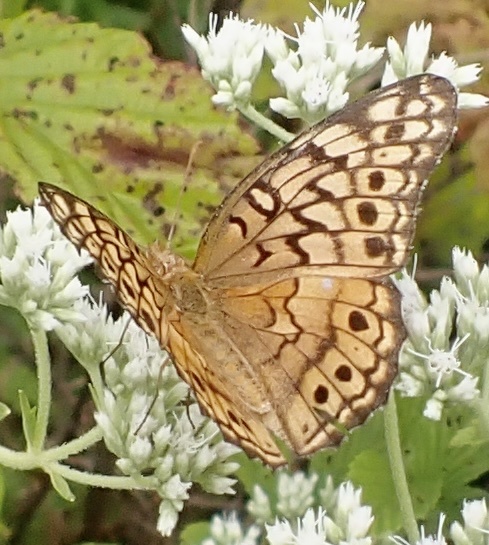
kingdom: Animalia
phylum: Arthropoda
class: Insecta
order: Lepidoptera
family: Nymphalidae
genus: Euptoieta
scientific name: Euptoieta claudia
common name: Variegated fritillary
